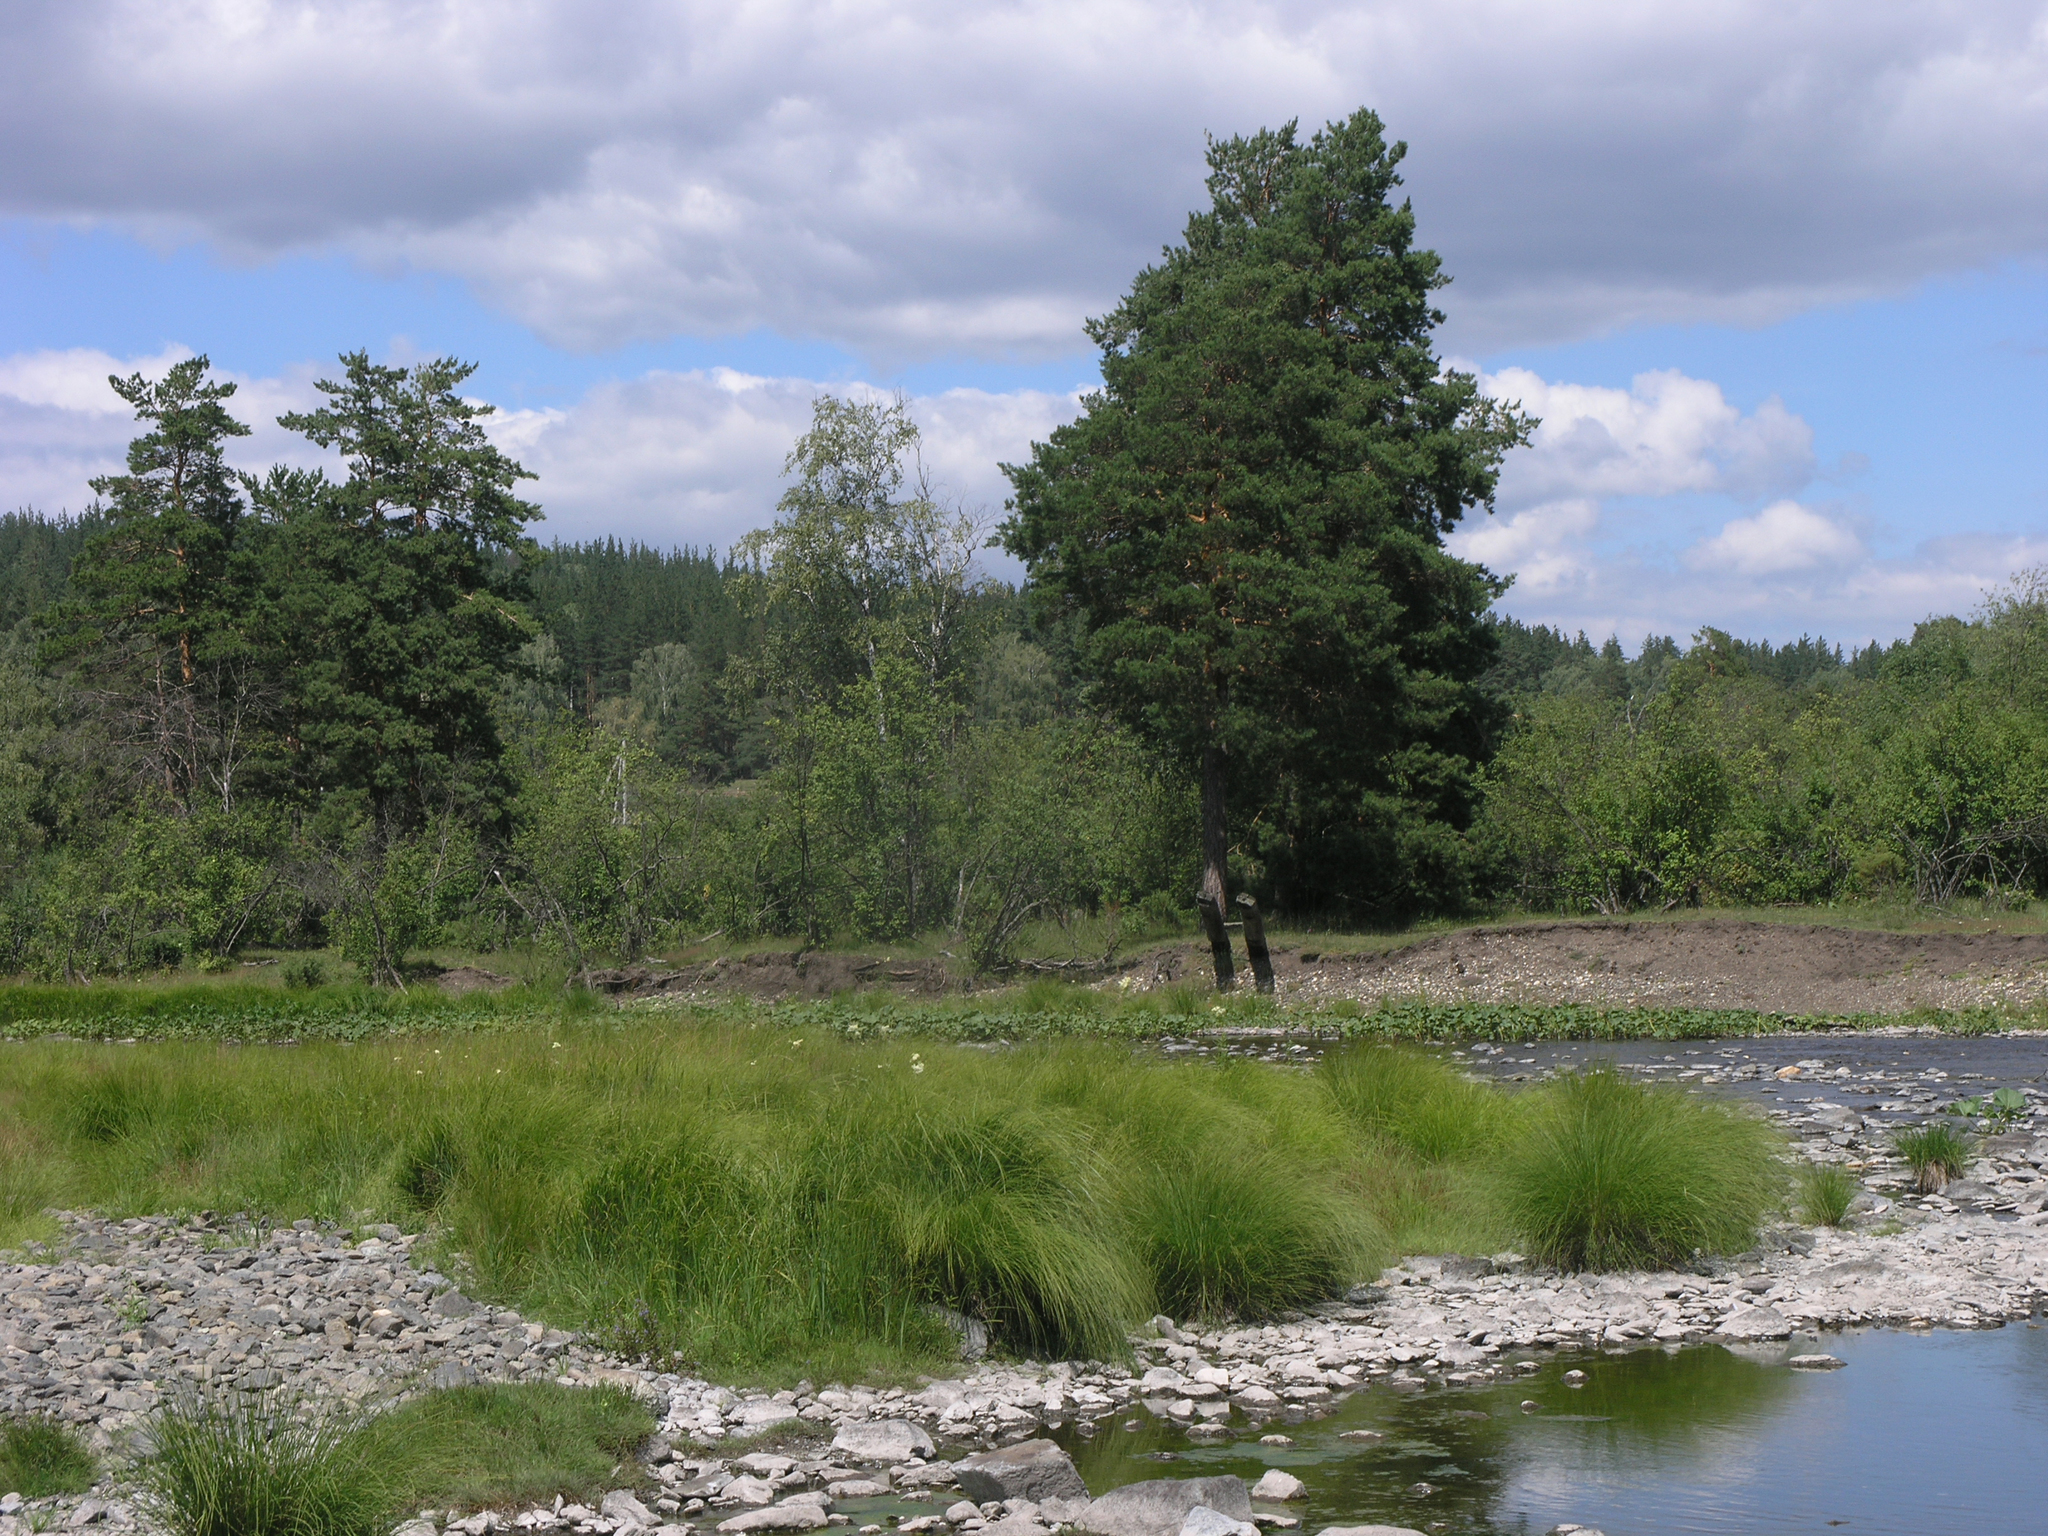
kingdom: Plantae
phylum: Tracheophyta
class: Pinopsida
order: Pinales
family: Pinaceae
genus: Pinus
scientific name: Pinus sylvestris
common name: Scots pine
